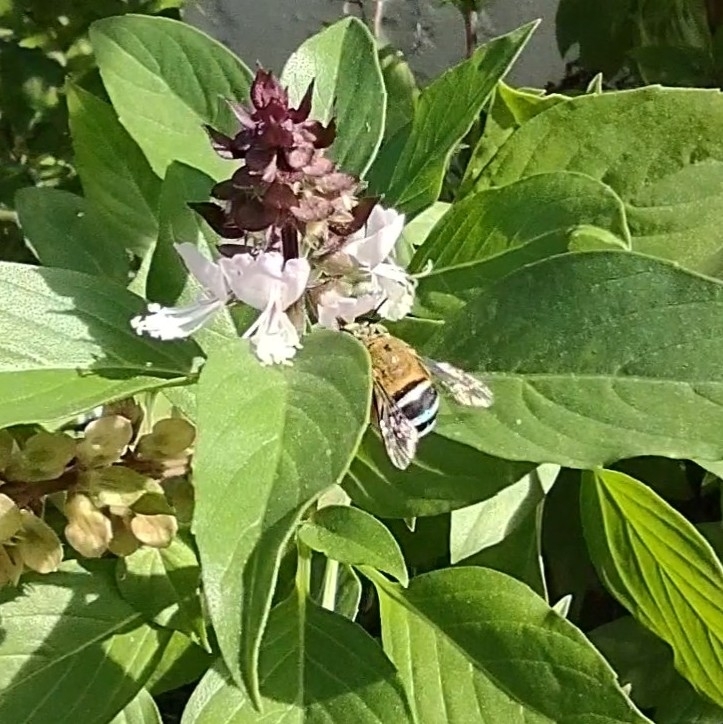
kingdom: Animalia
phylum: Arthropoda
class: Insecta
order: Hymenoptera
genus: Zonamegilla
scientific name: Zonamegilla
